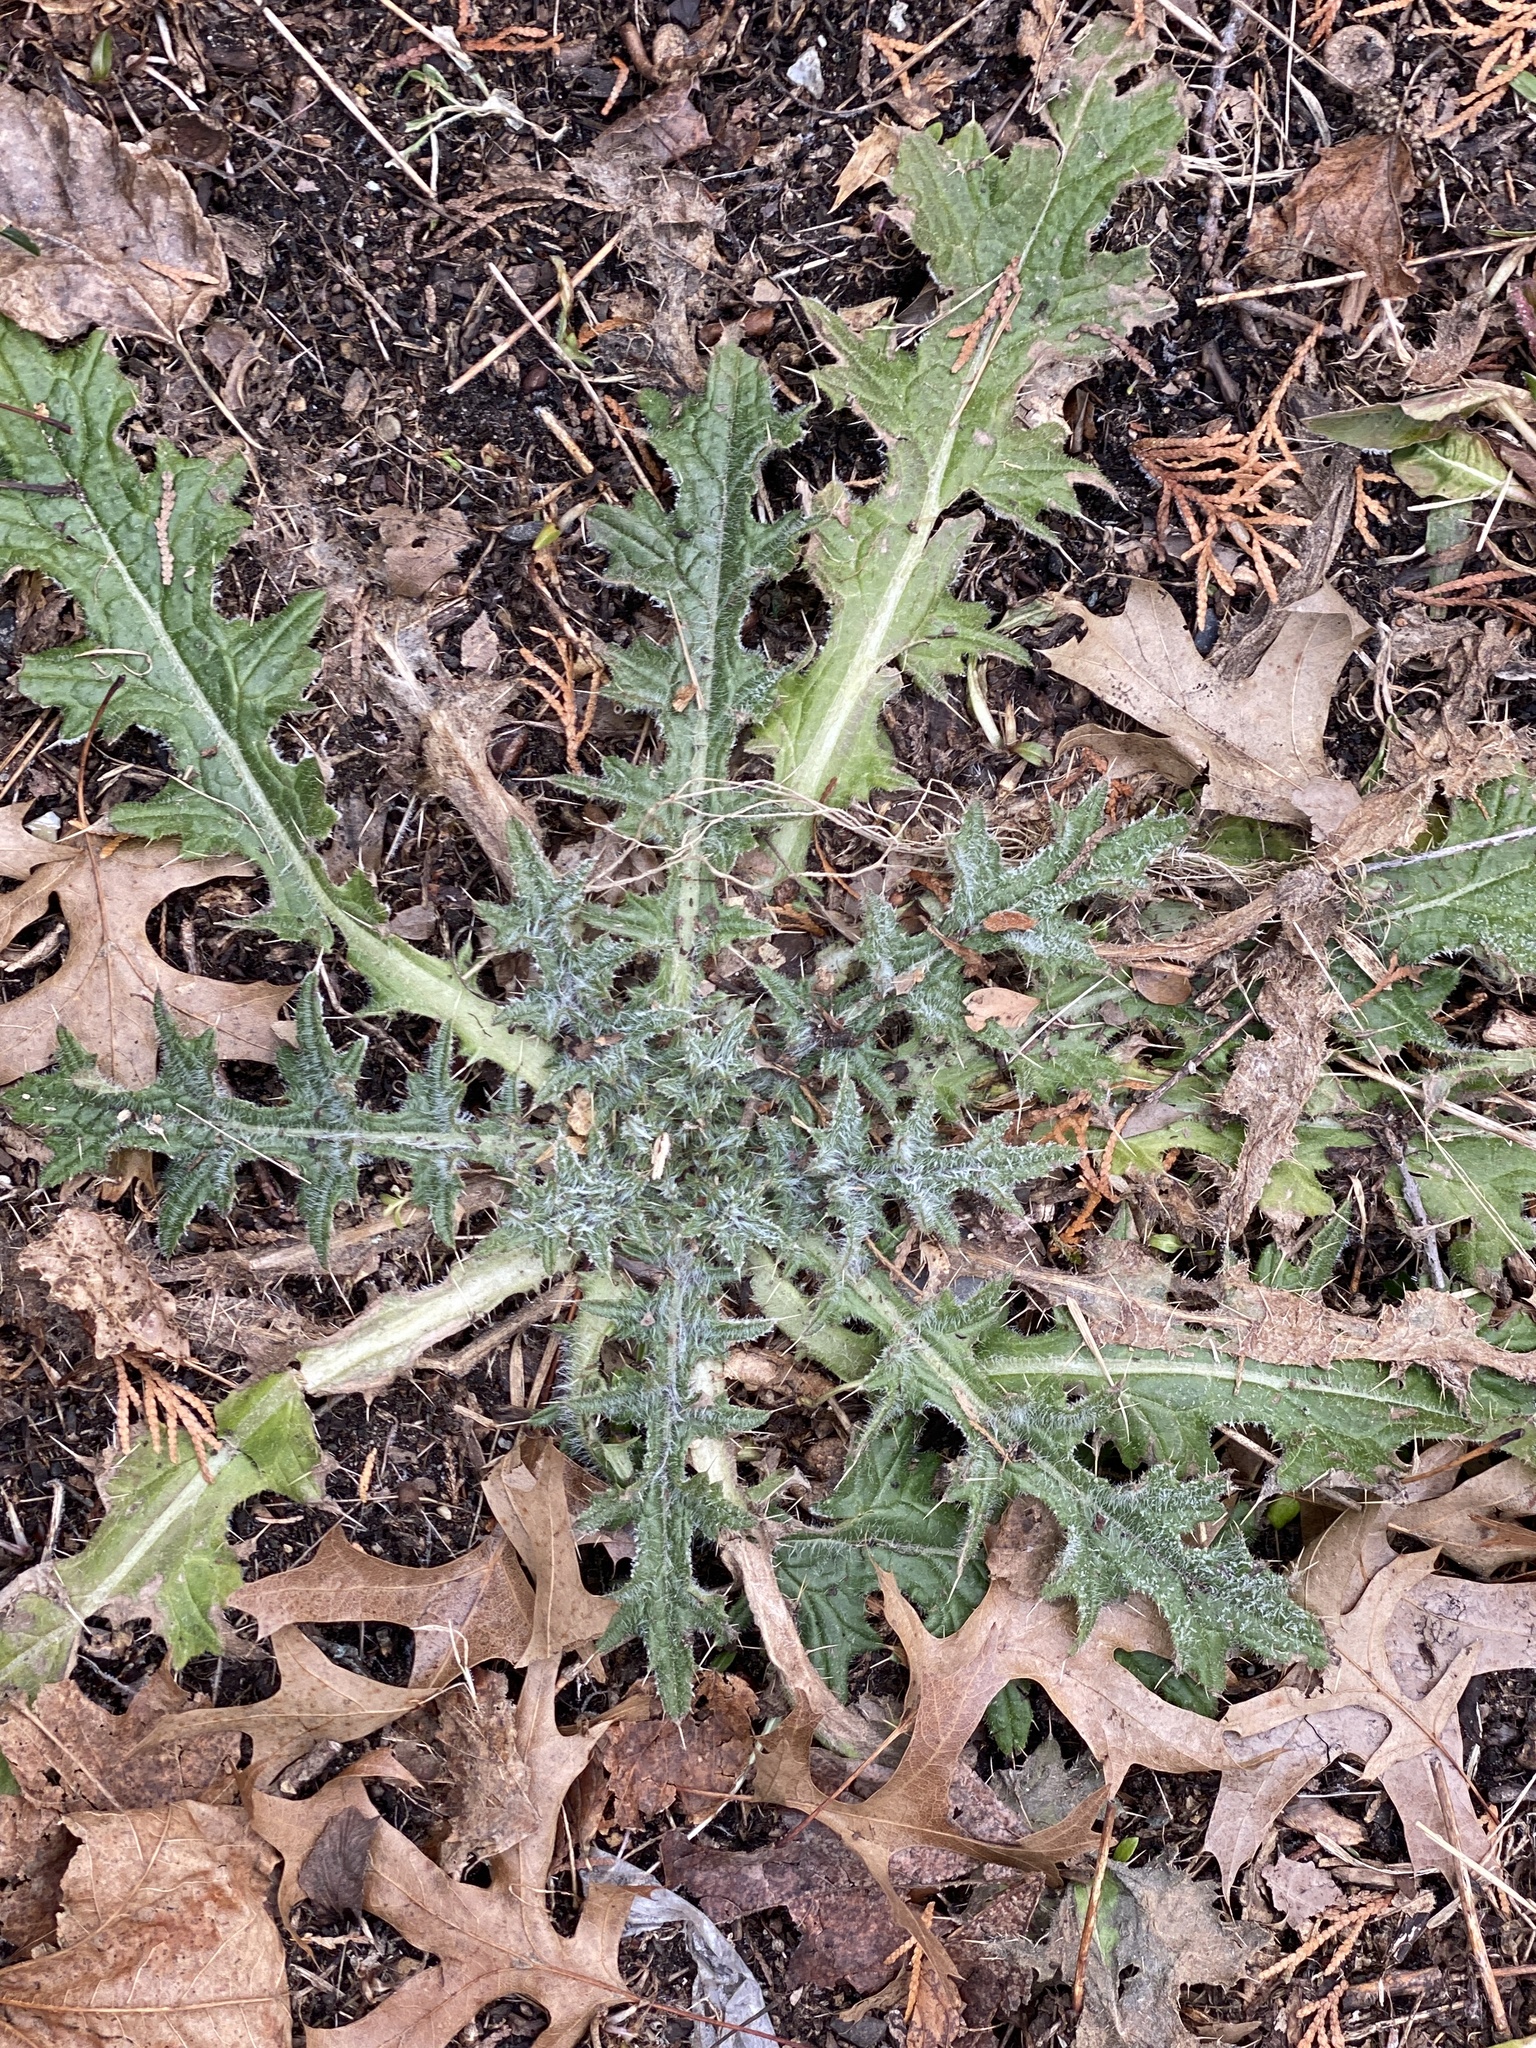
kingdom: Plantae
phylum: Tracheophyta
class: Magnoliopsida
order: Asterales
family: Asteraceae
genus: Cirsium
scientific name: Cirsium vulgare
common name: Bull thistle
